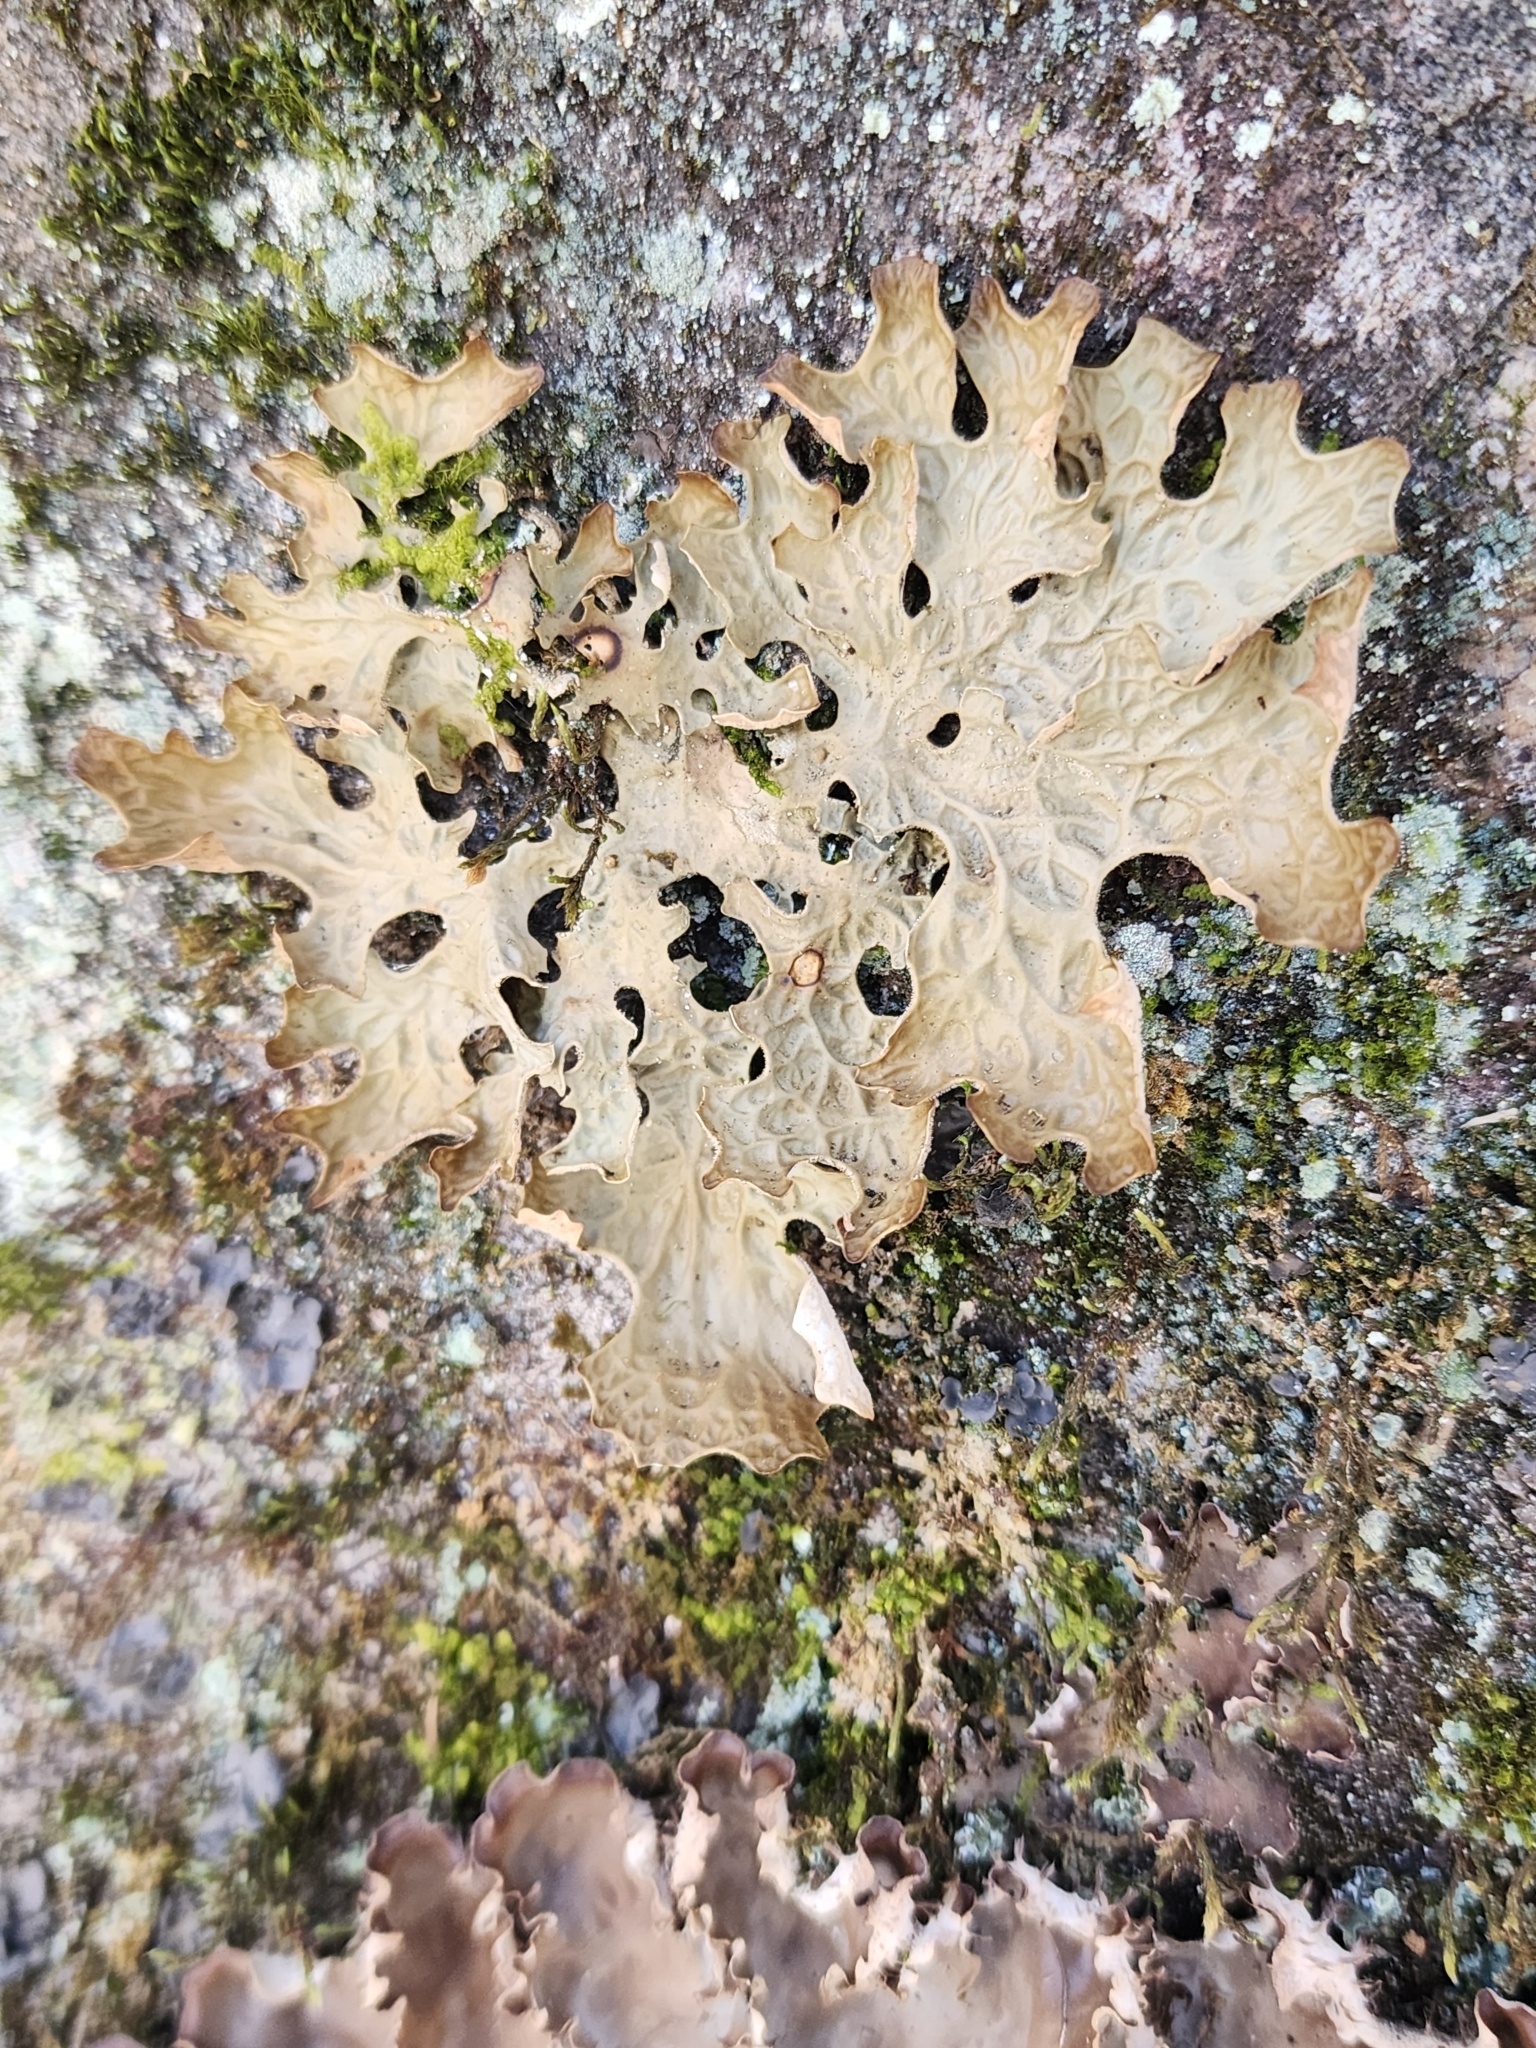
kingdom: Fungi
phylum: Ascomycota
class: Lecanoromycetes
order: Peltigerales
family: Lobariaceae
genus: Lobaria
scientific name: Lobaria pulmonaria
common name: Lungwort
